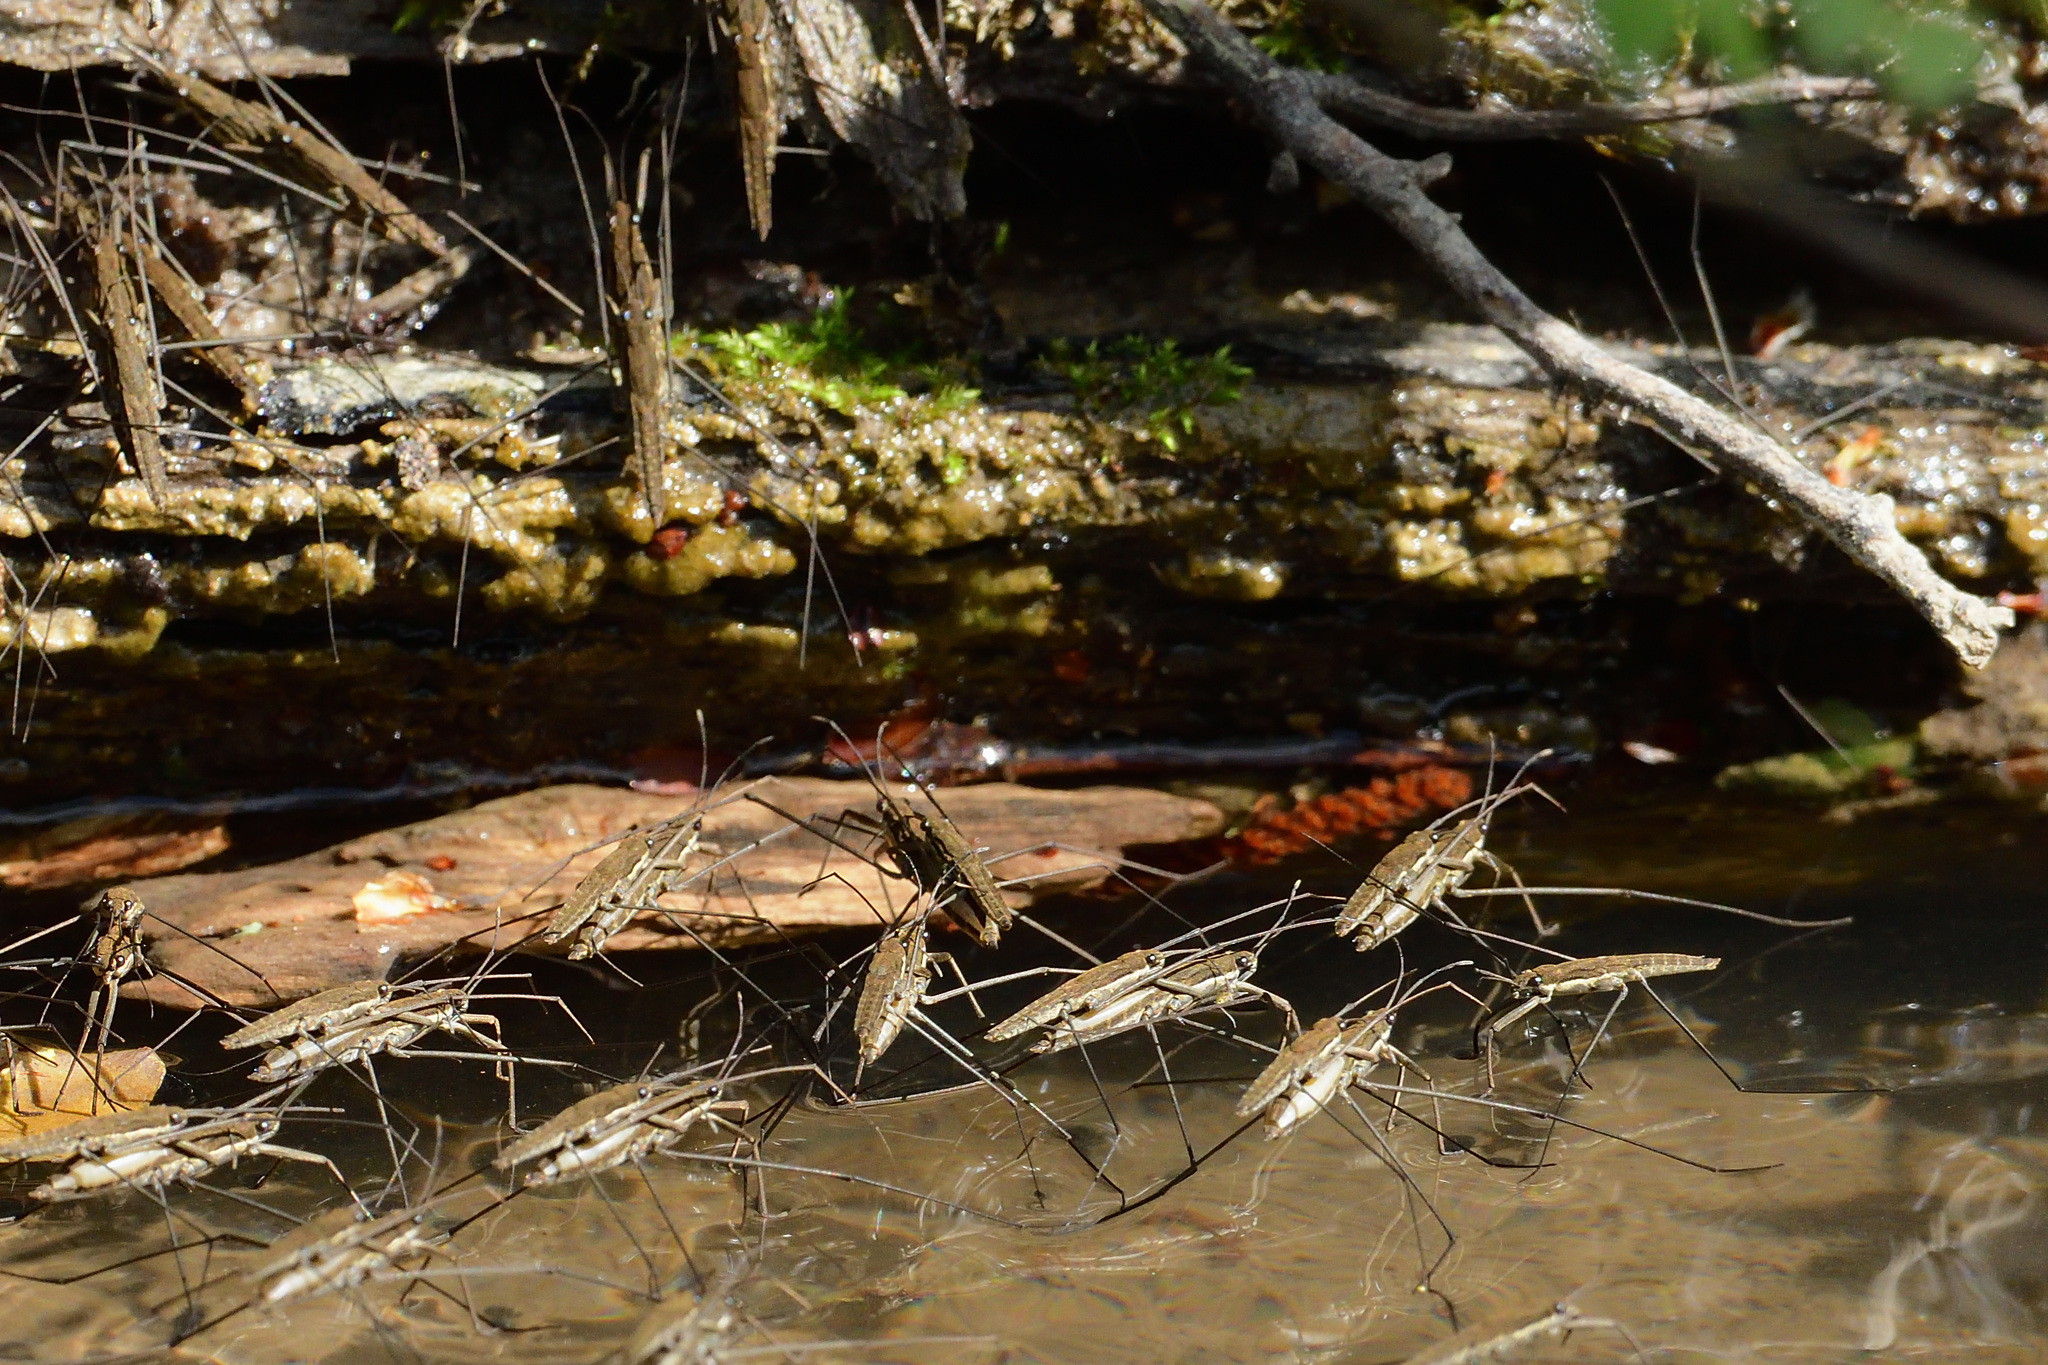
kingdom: Animalia
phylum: Arthropoda
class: Insecta
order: Hemiptera
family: Gerridae
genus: Aquarius
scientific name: Aquarius najas
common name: River skater
